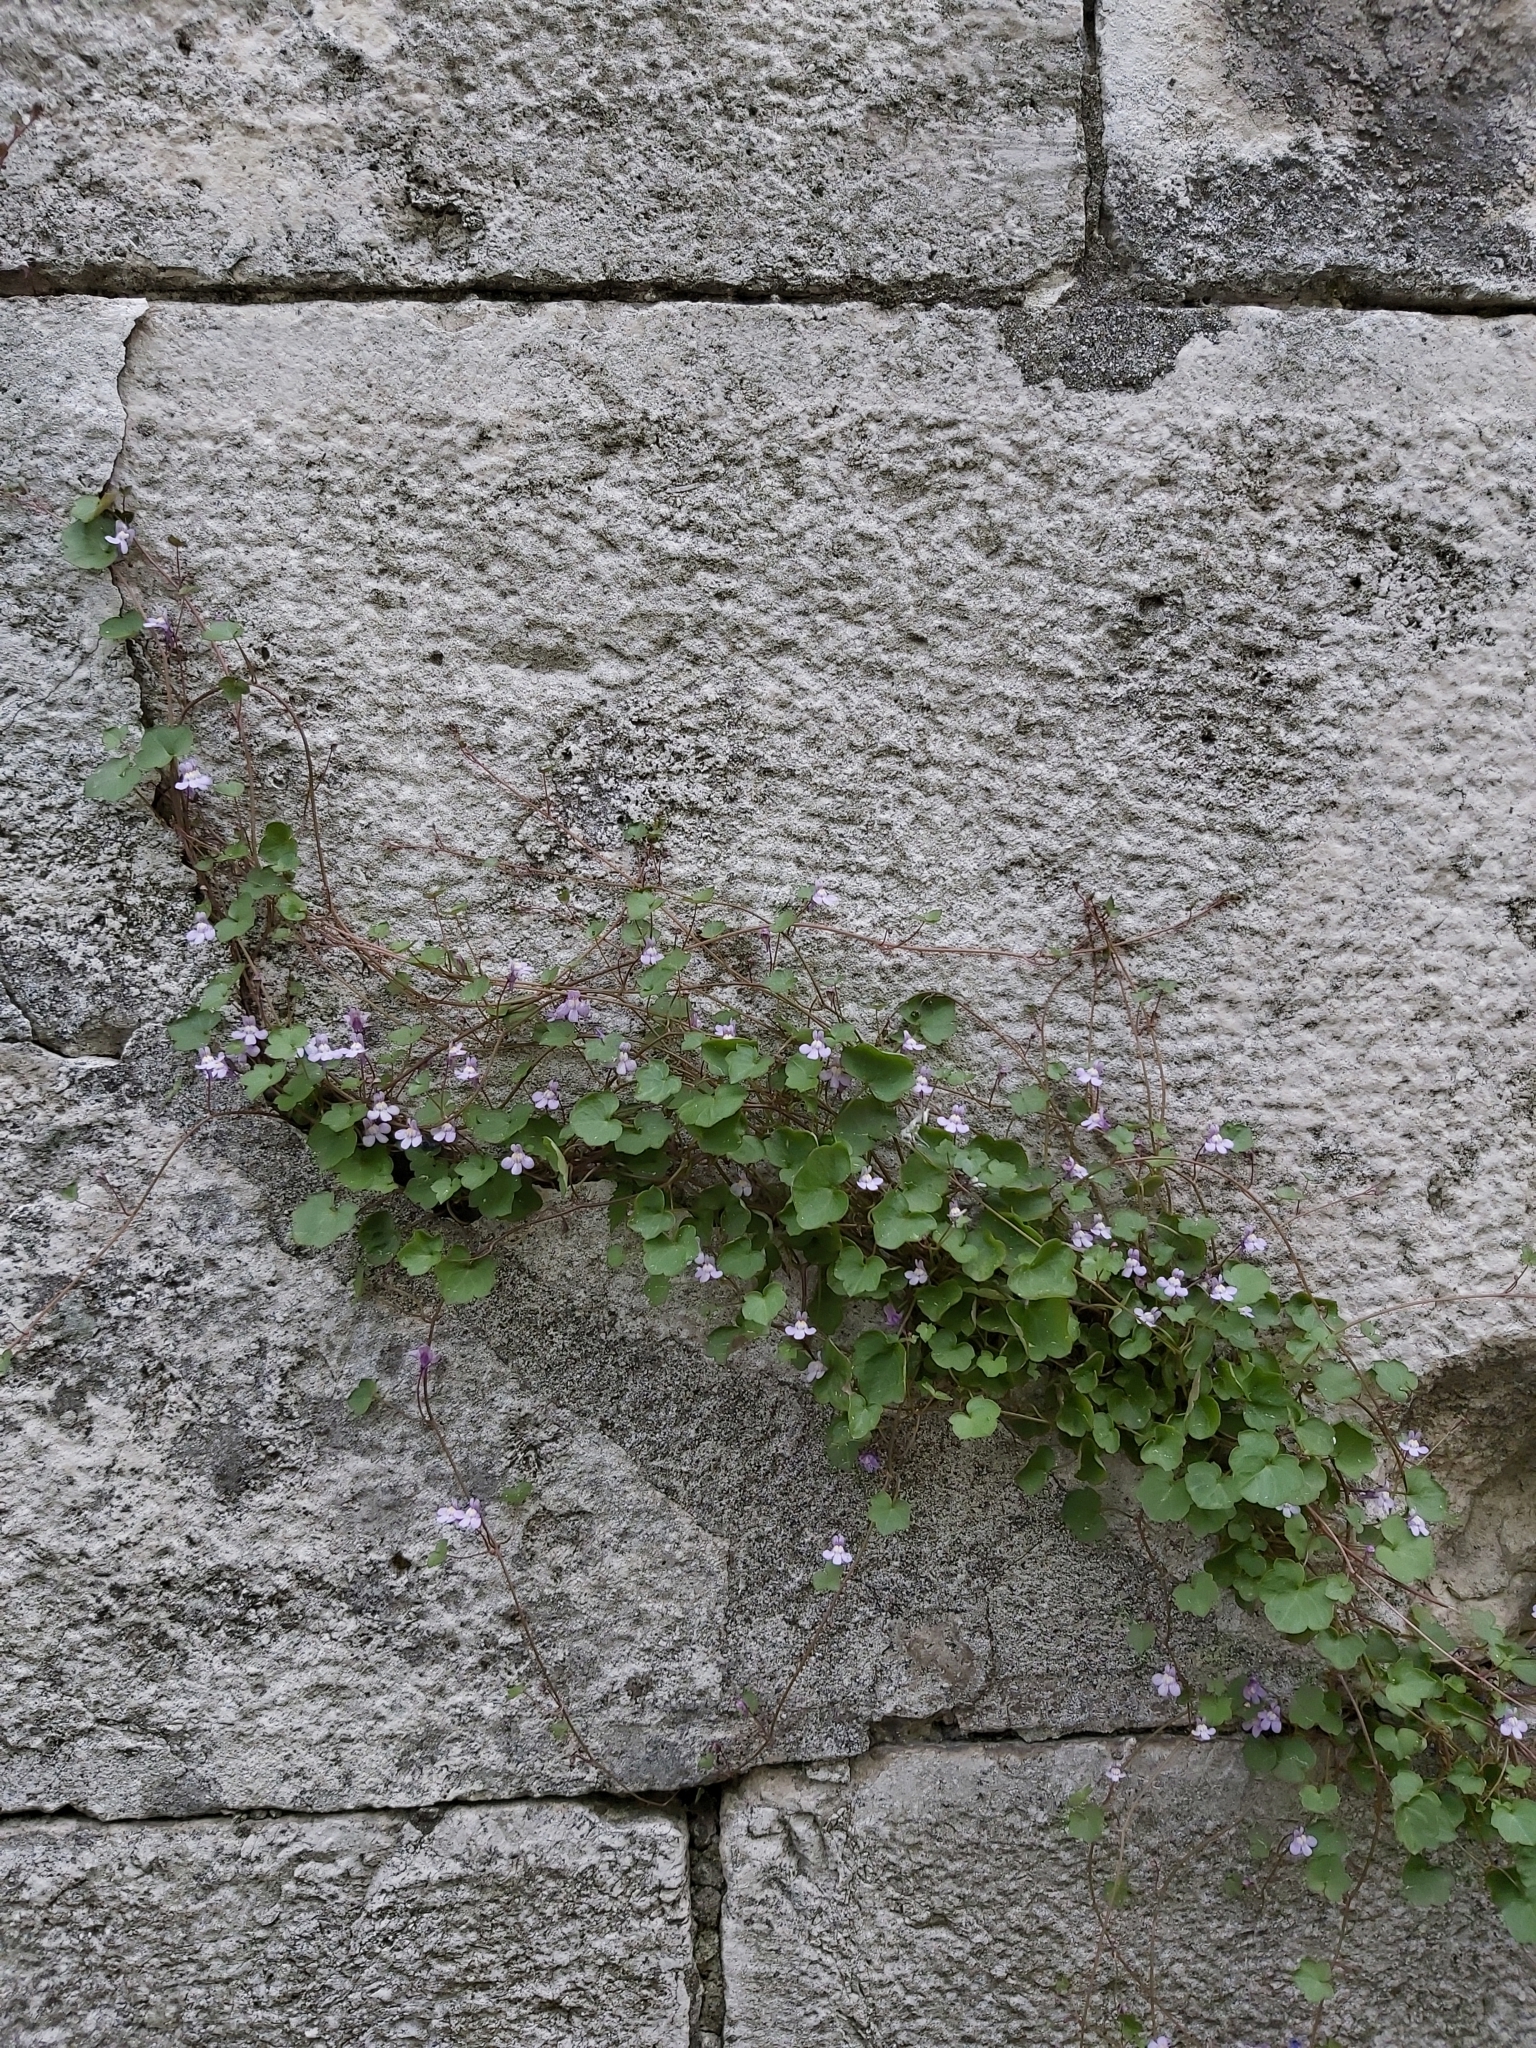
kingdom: Plantae
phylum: Tracheophyta
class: Magnoliopsida
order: Lamiales
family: Plantaginaceae
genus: Cymbalaria
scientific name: Cymbalaria muralis
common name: Ivy-leaved toadflax
